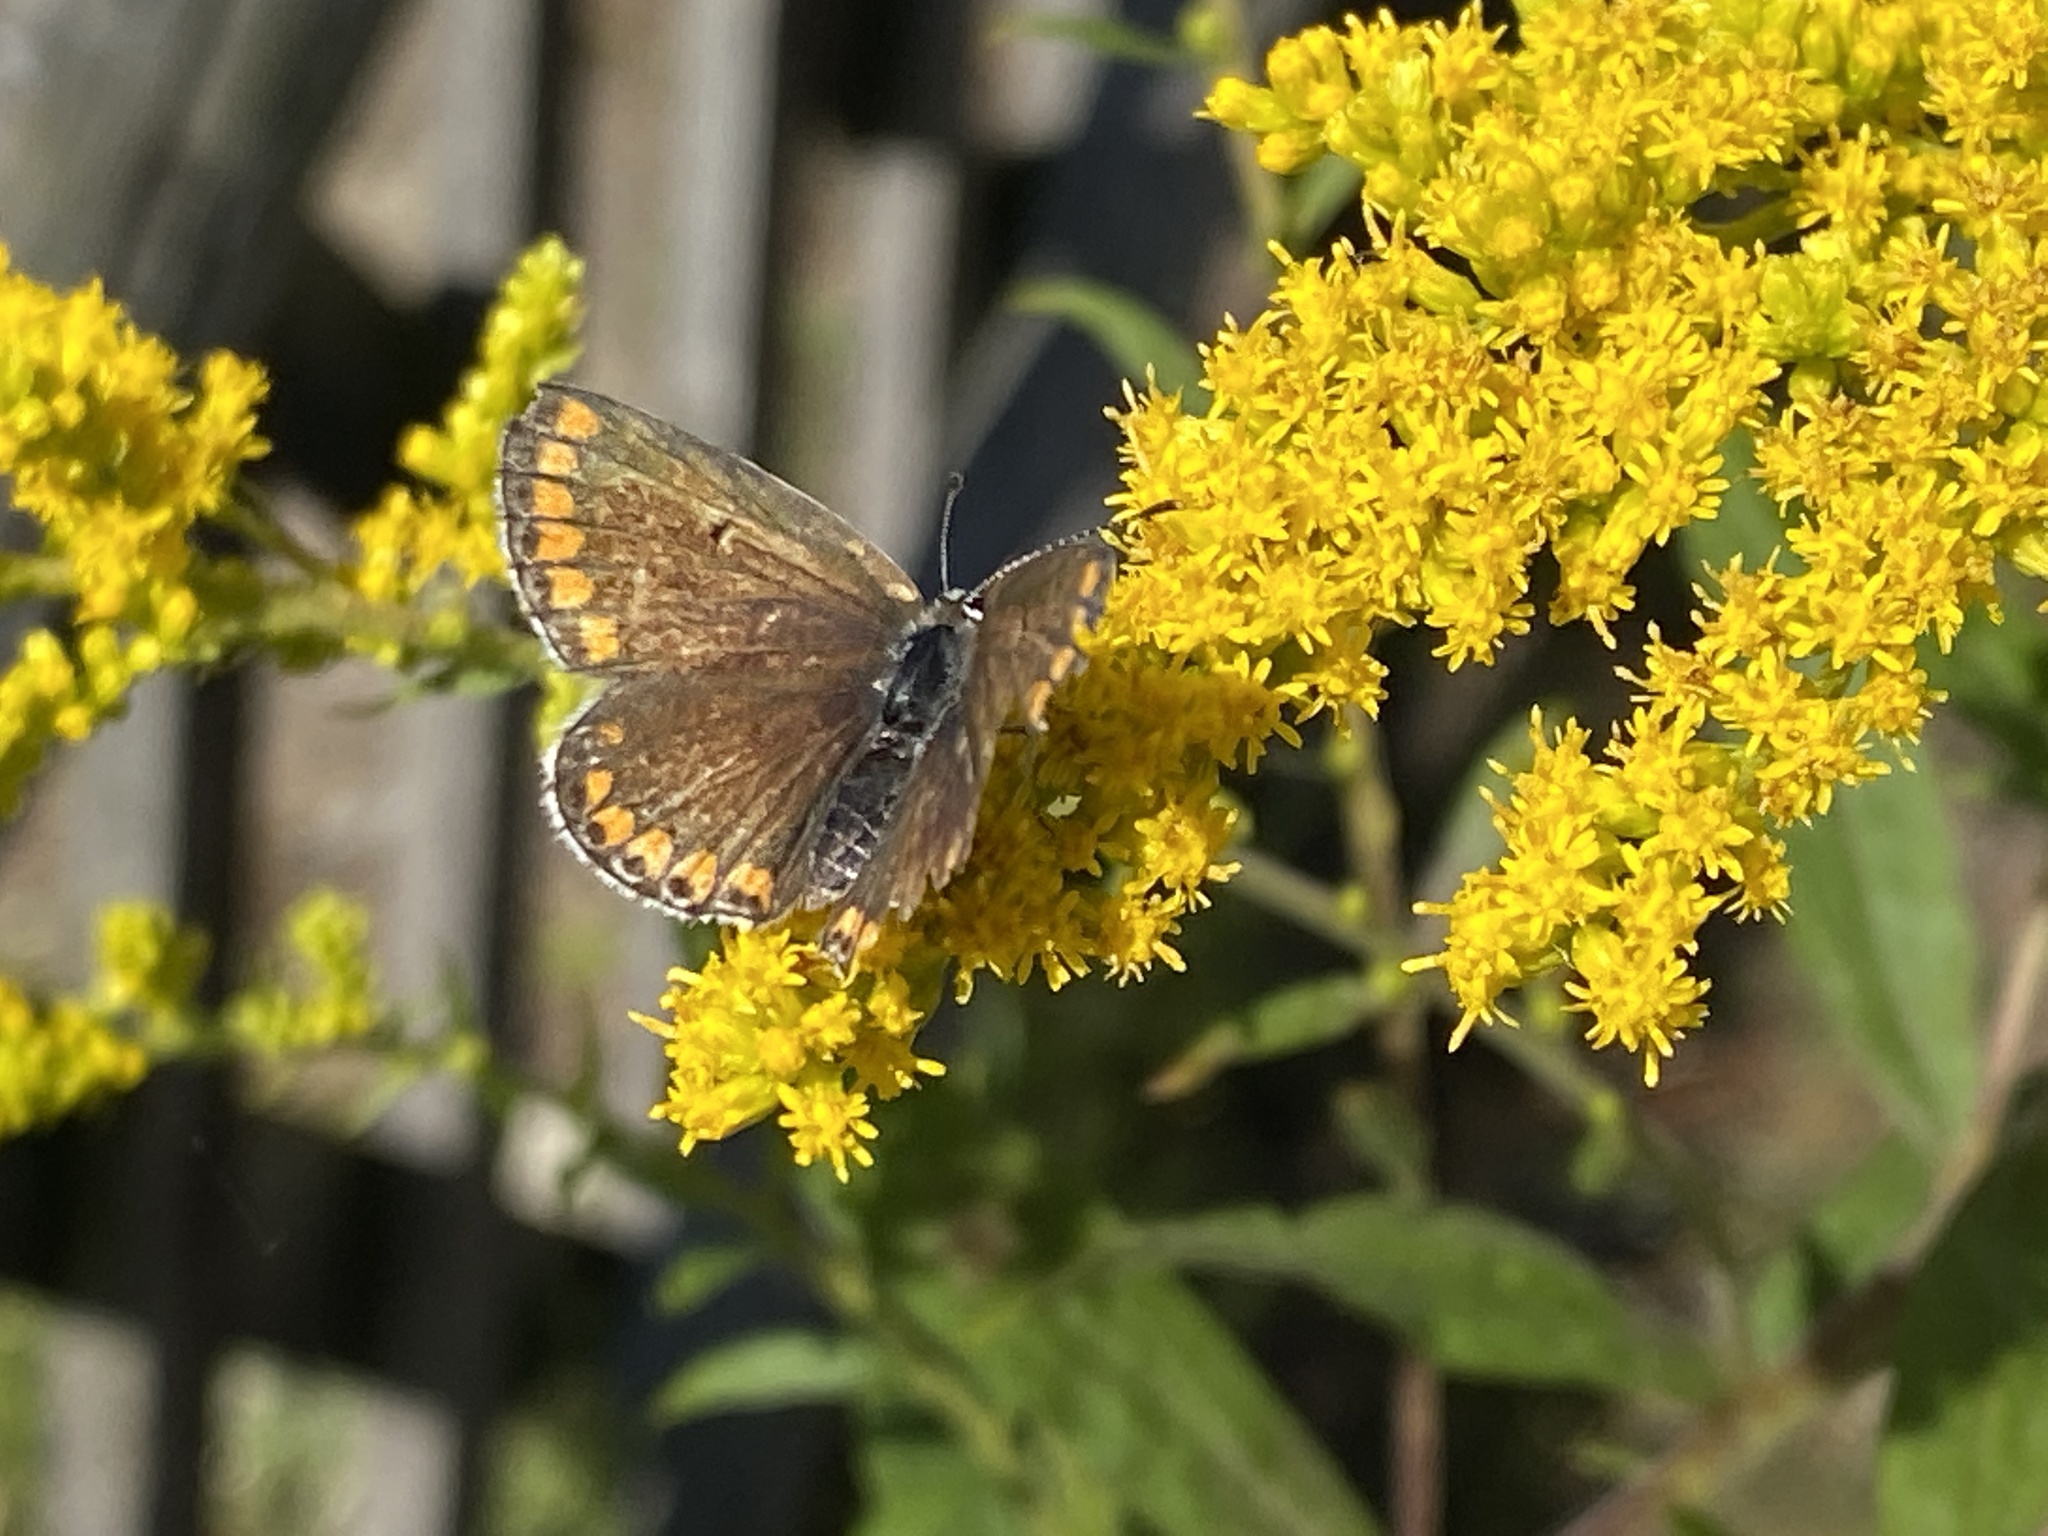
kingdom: Animalia
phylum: Arthropoda
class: Insecta
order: Lepidoptera
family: Lycaenidae
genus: Aricia
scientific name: Aricia agestis
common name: Brown argus
